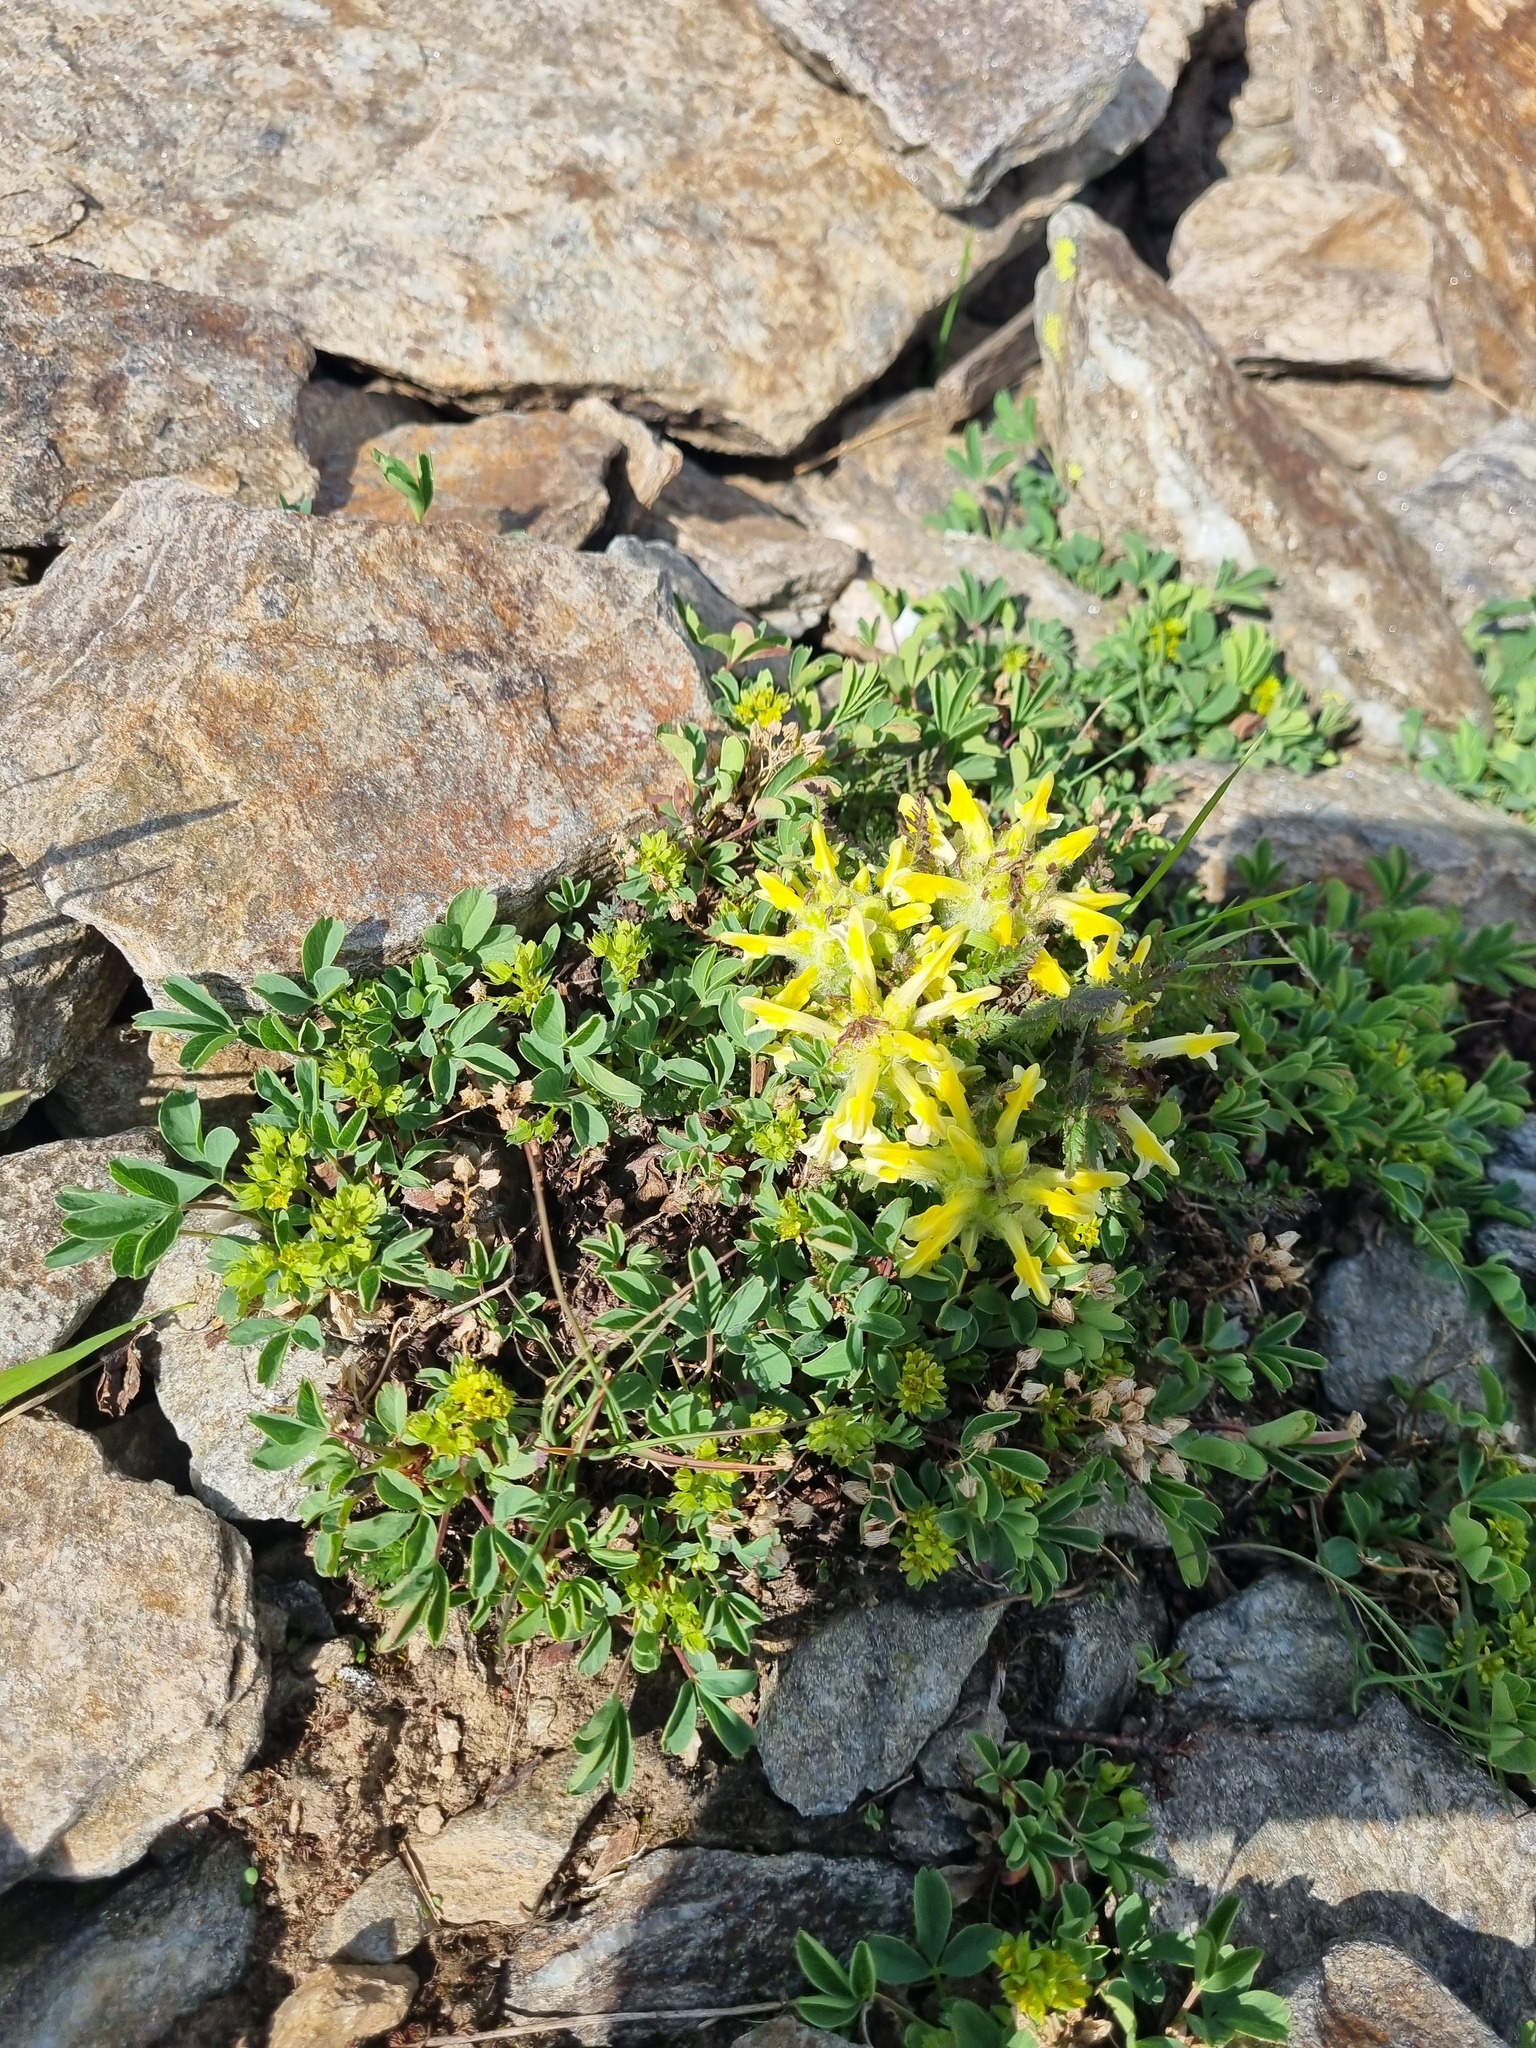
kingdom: Plantae
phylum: Tracheophyta
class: Magnoliopsida
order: Rosales
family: Rosaceae
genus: Sibbaldia
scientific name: Sibbaldia parviflora
